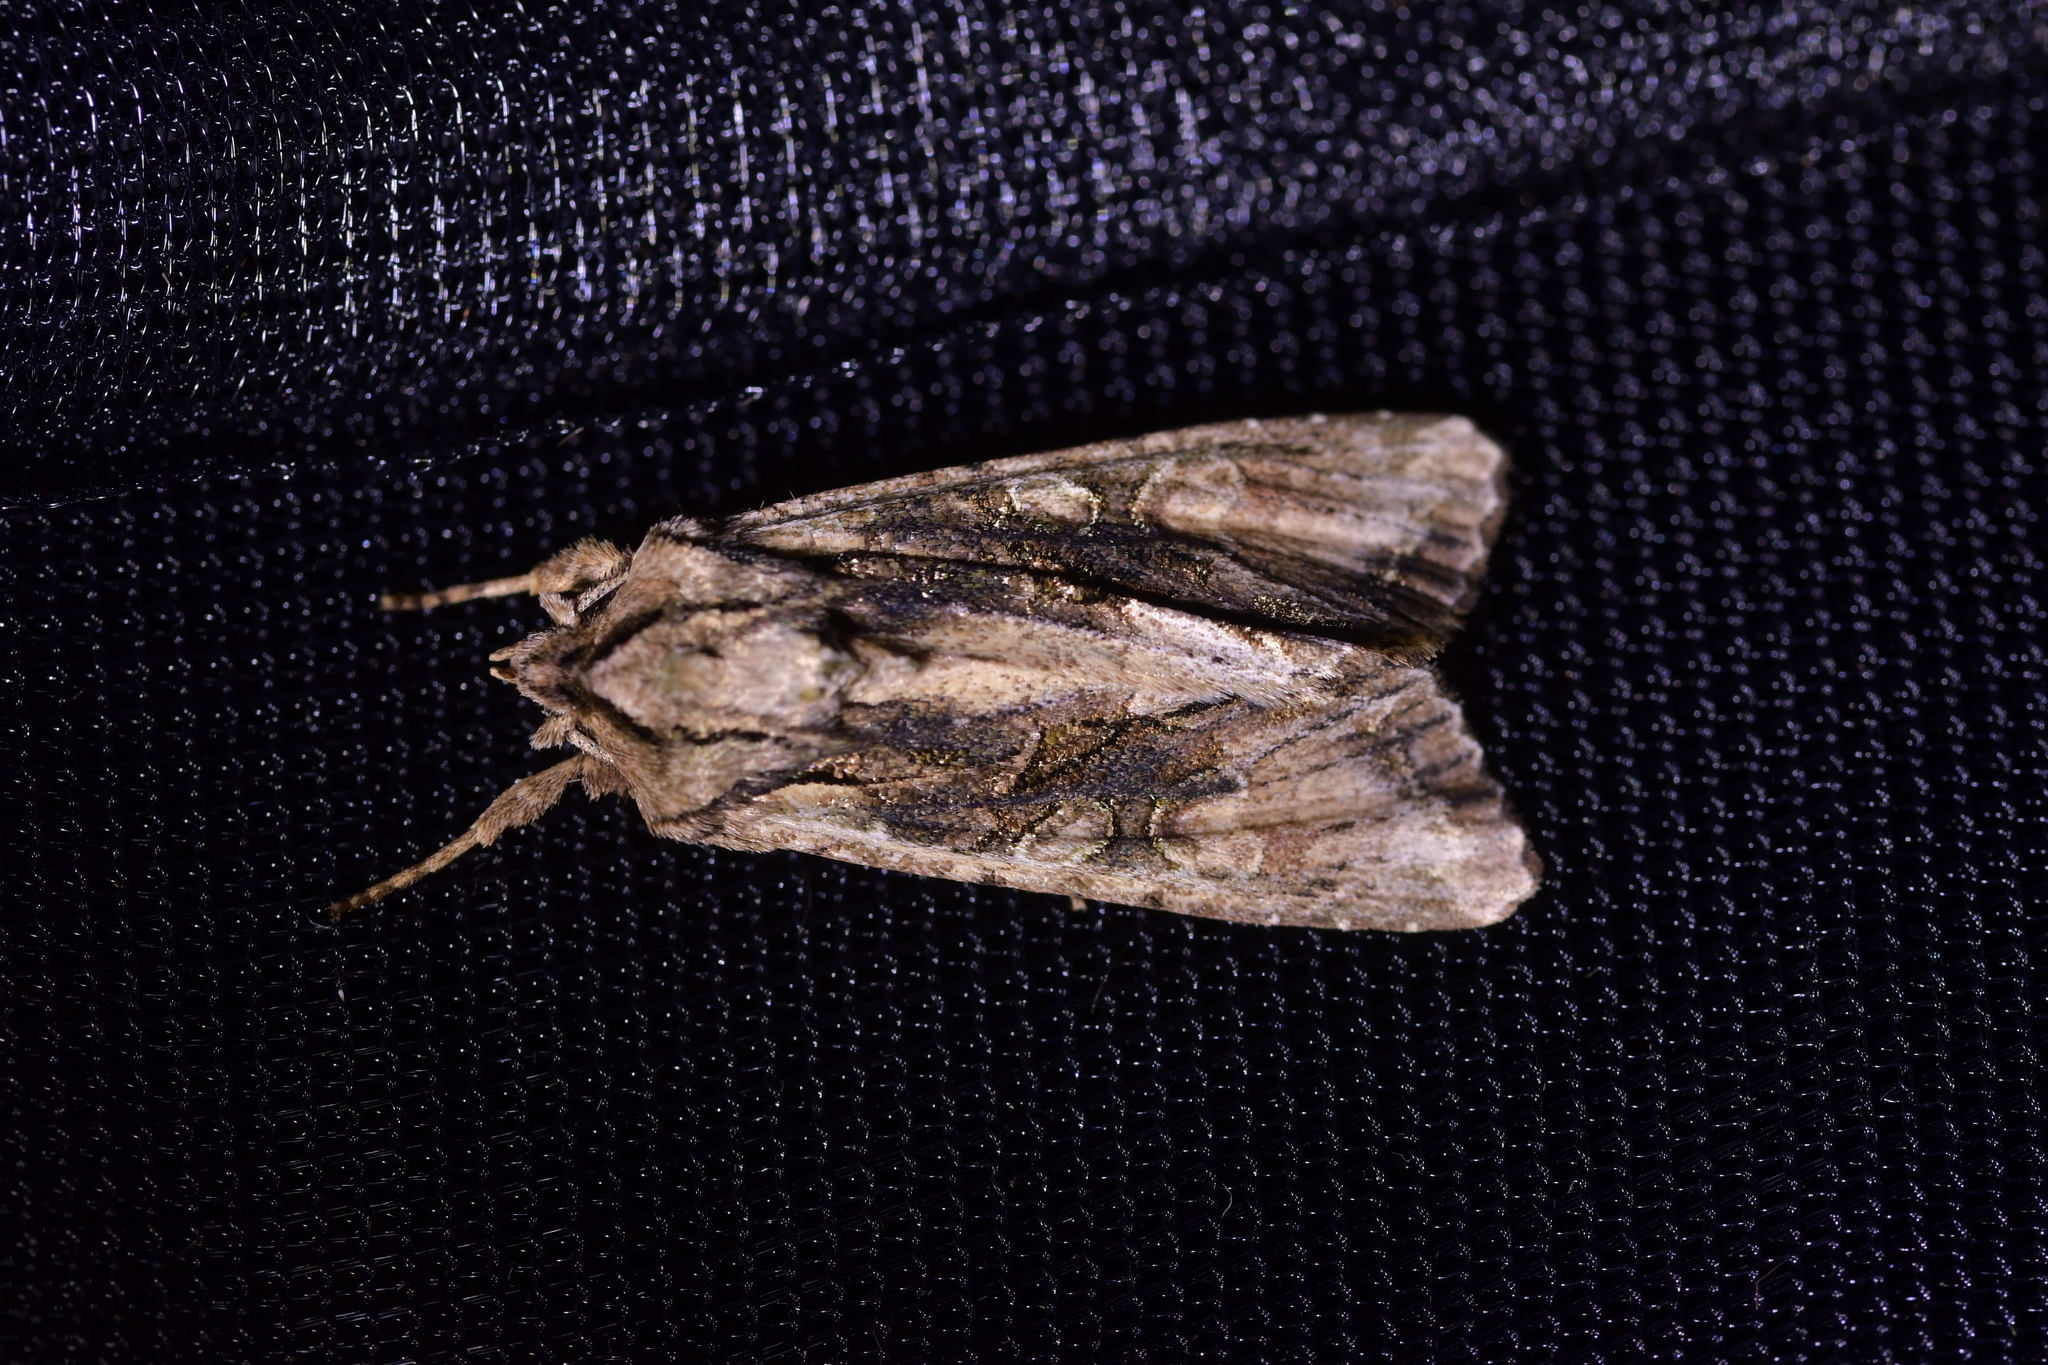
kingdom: Animalia
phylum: Arthropoda
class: Insecta
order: Lepidoptera
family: Noctuidae
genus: Ichneutica
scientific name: Ichneutica mutans
